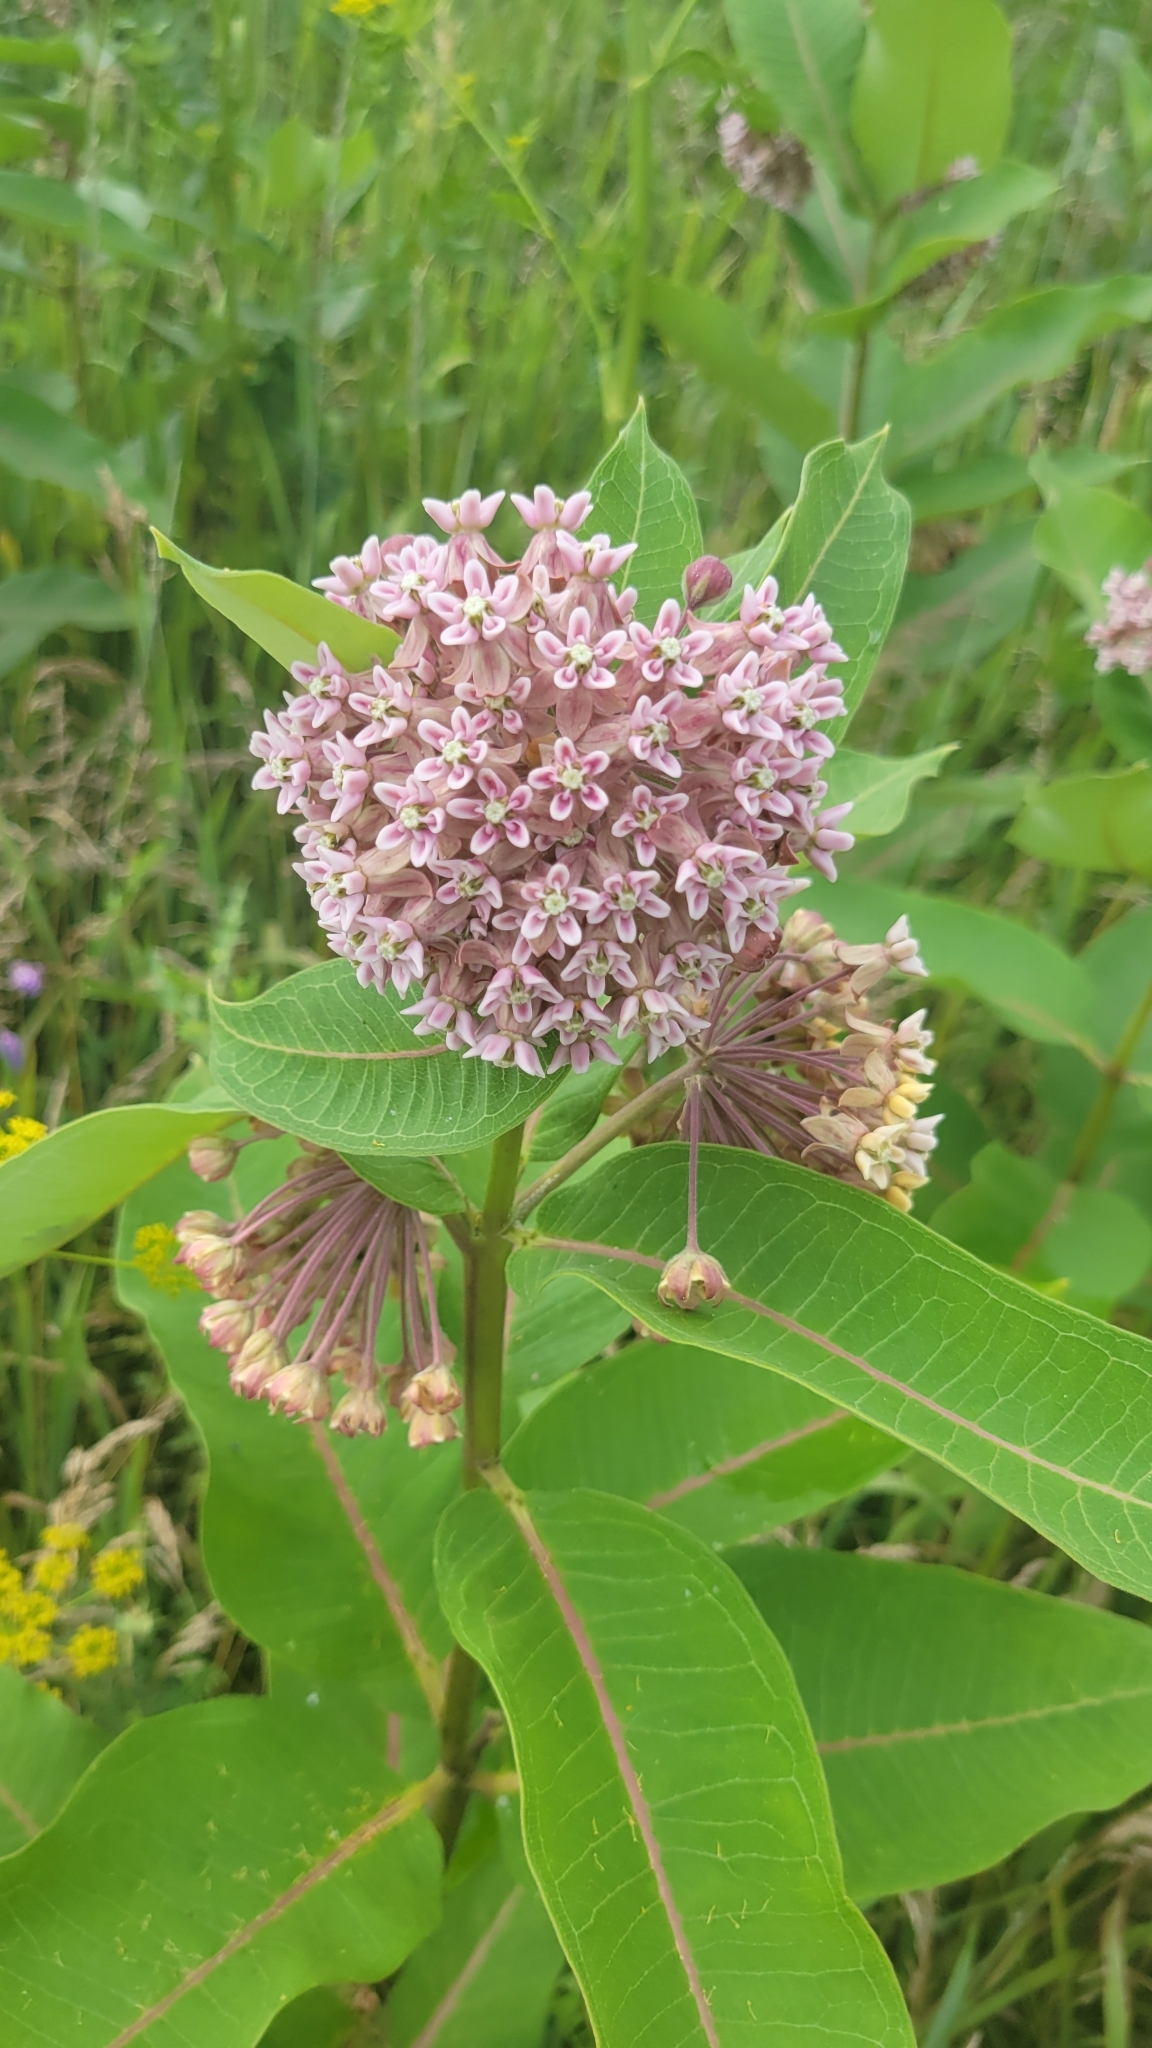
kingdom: Plantae
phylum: Tracheophyta
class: Magnoliopsida
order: Gentianales
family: Apocynaceae
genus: Asclepias
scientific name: Asclepias syriaca
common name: Common milkweed
